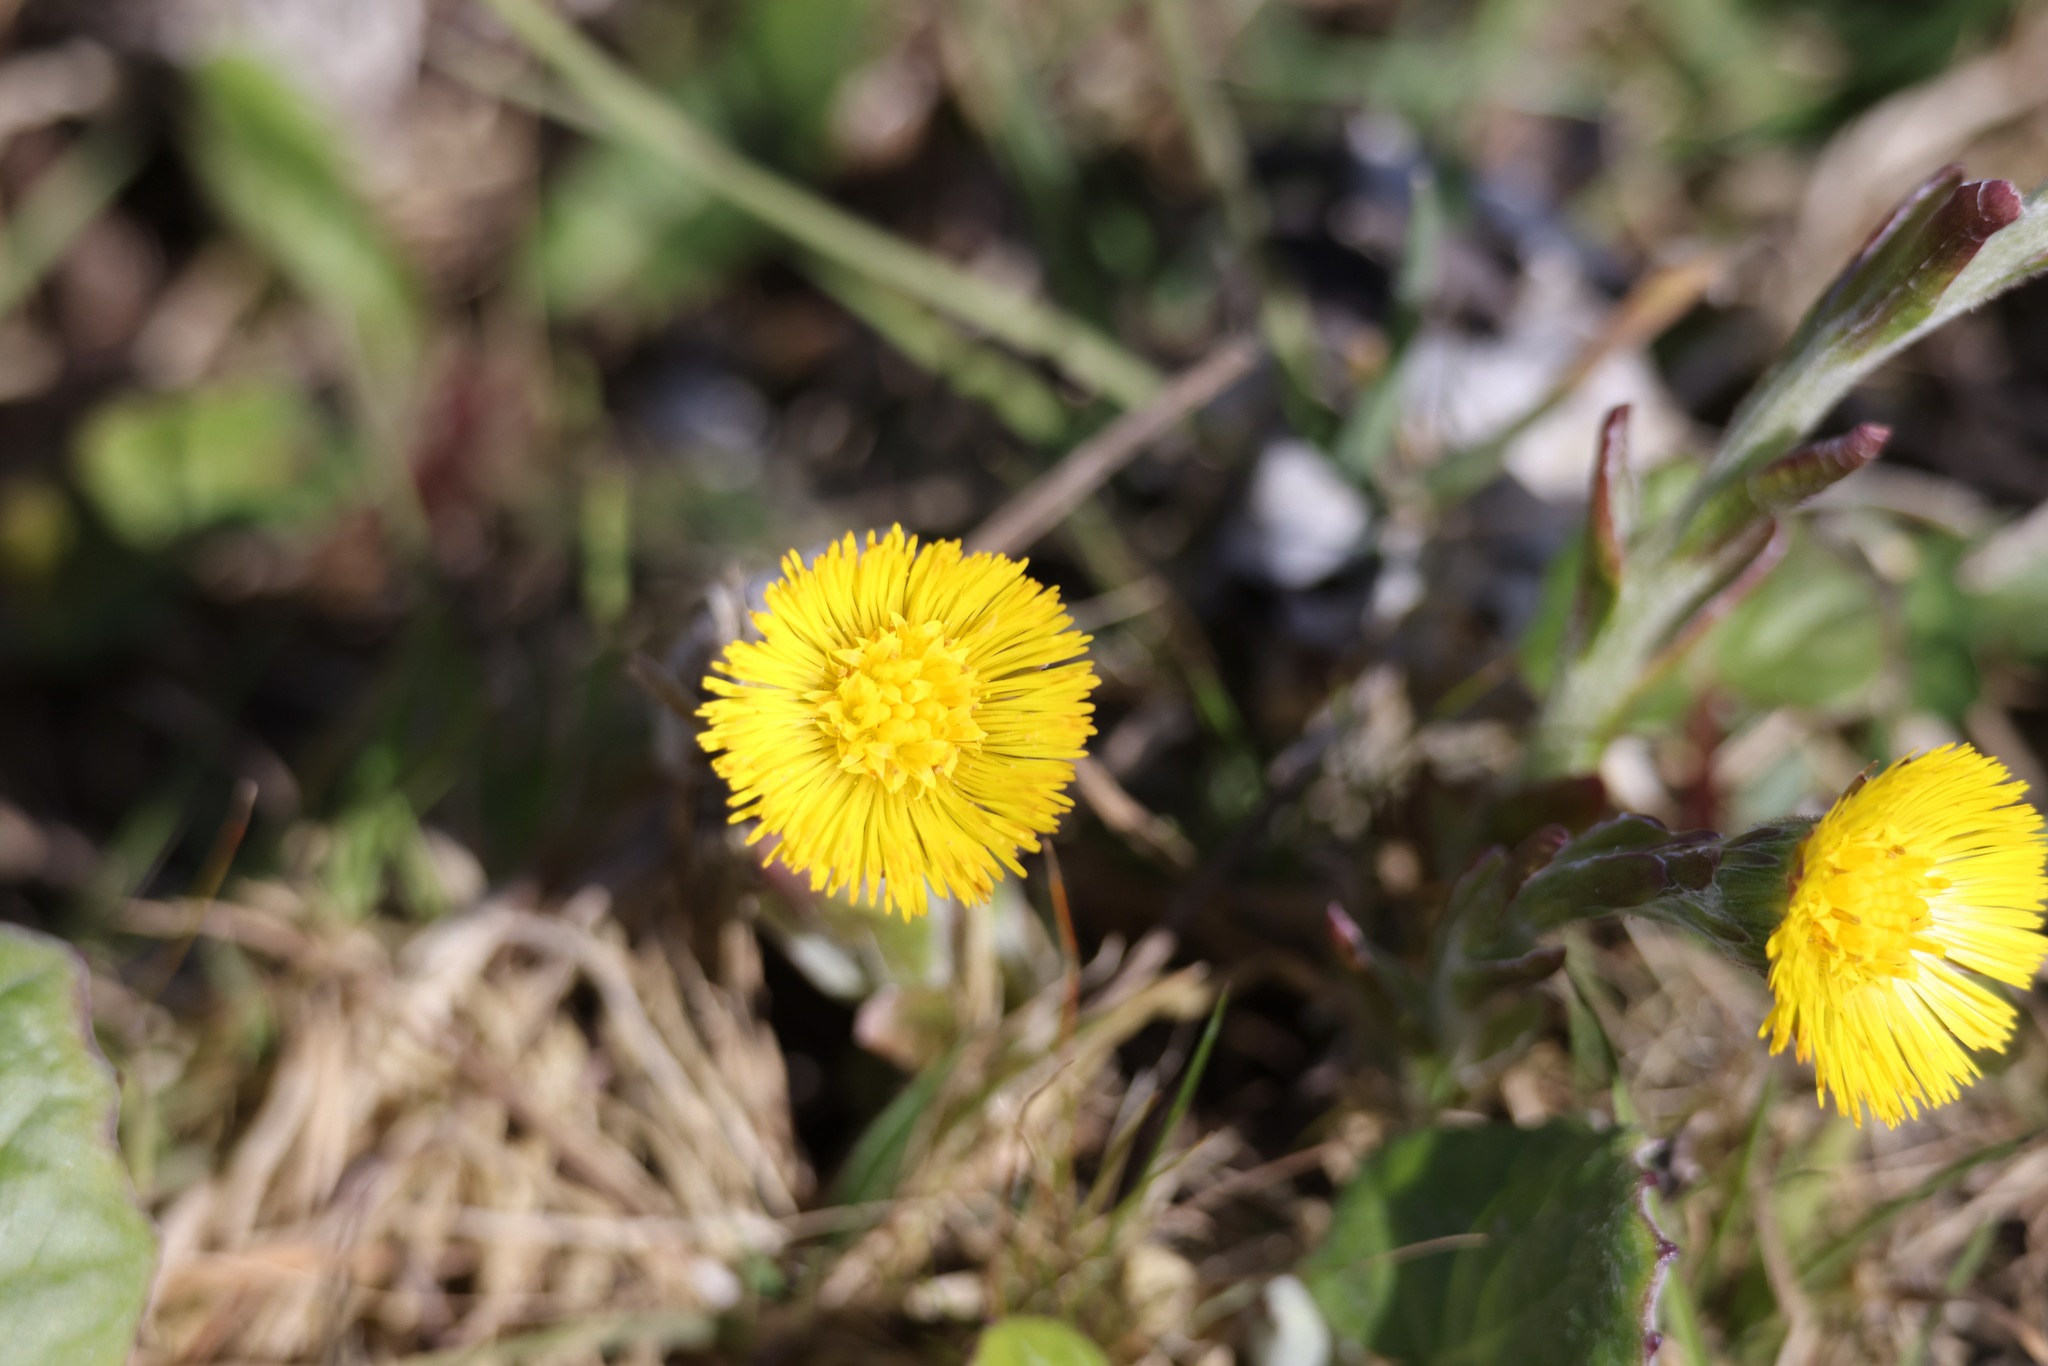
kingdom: Plantae
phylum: Tracheophyta
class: Magnoliopsida
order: Asterales
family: Asteraceae
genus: Tussilago
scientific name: Tussilago farfara
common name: Coltsfoot
